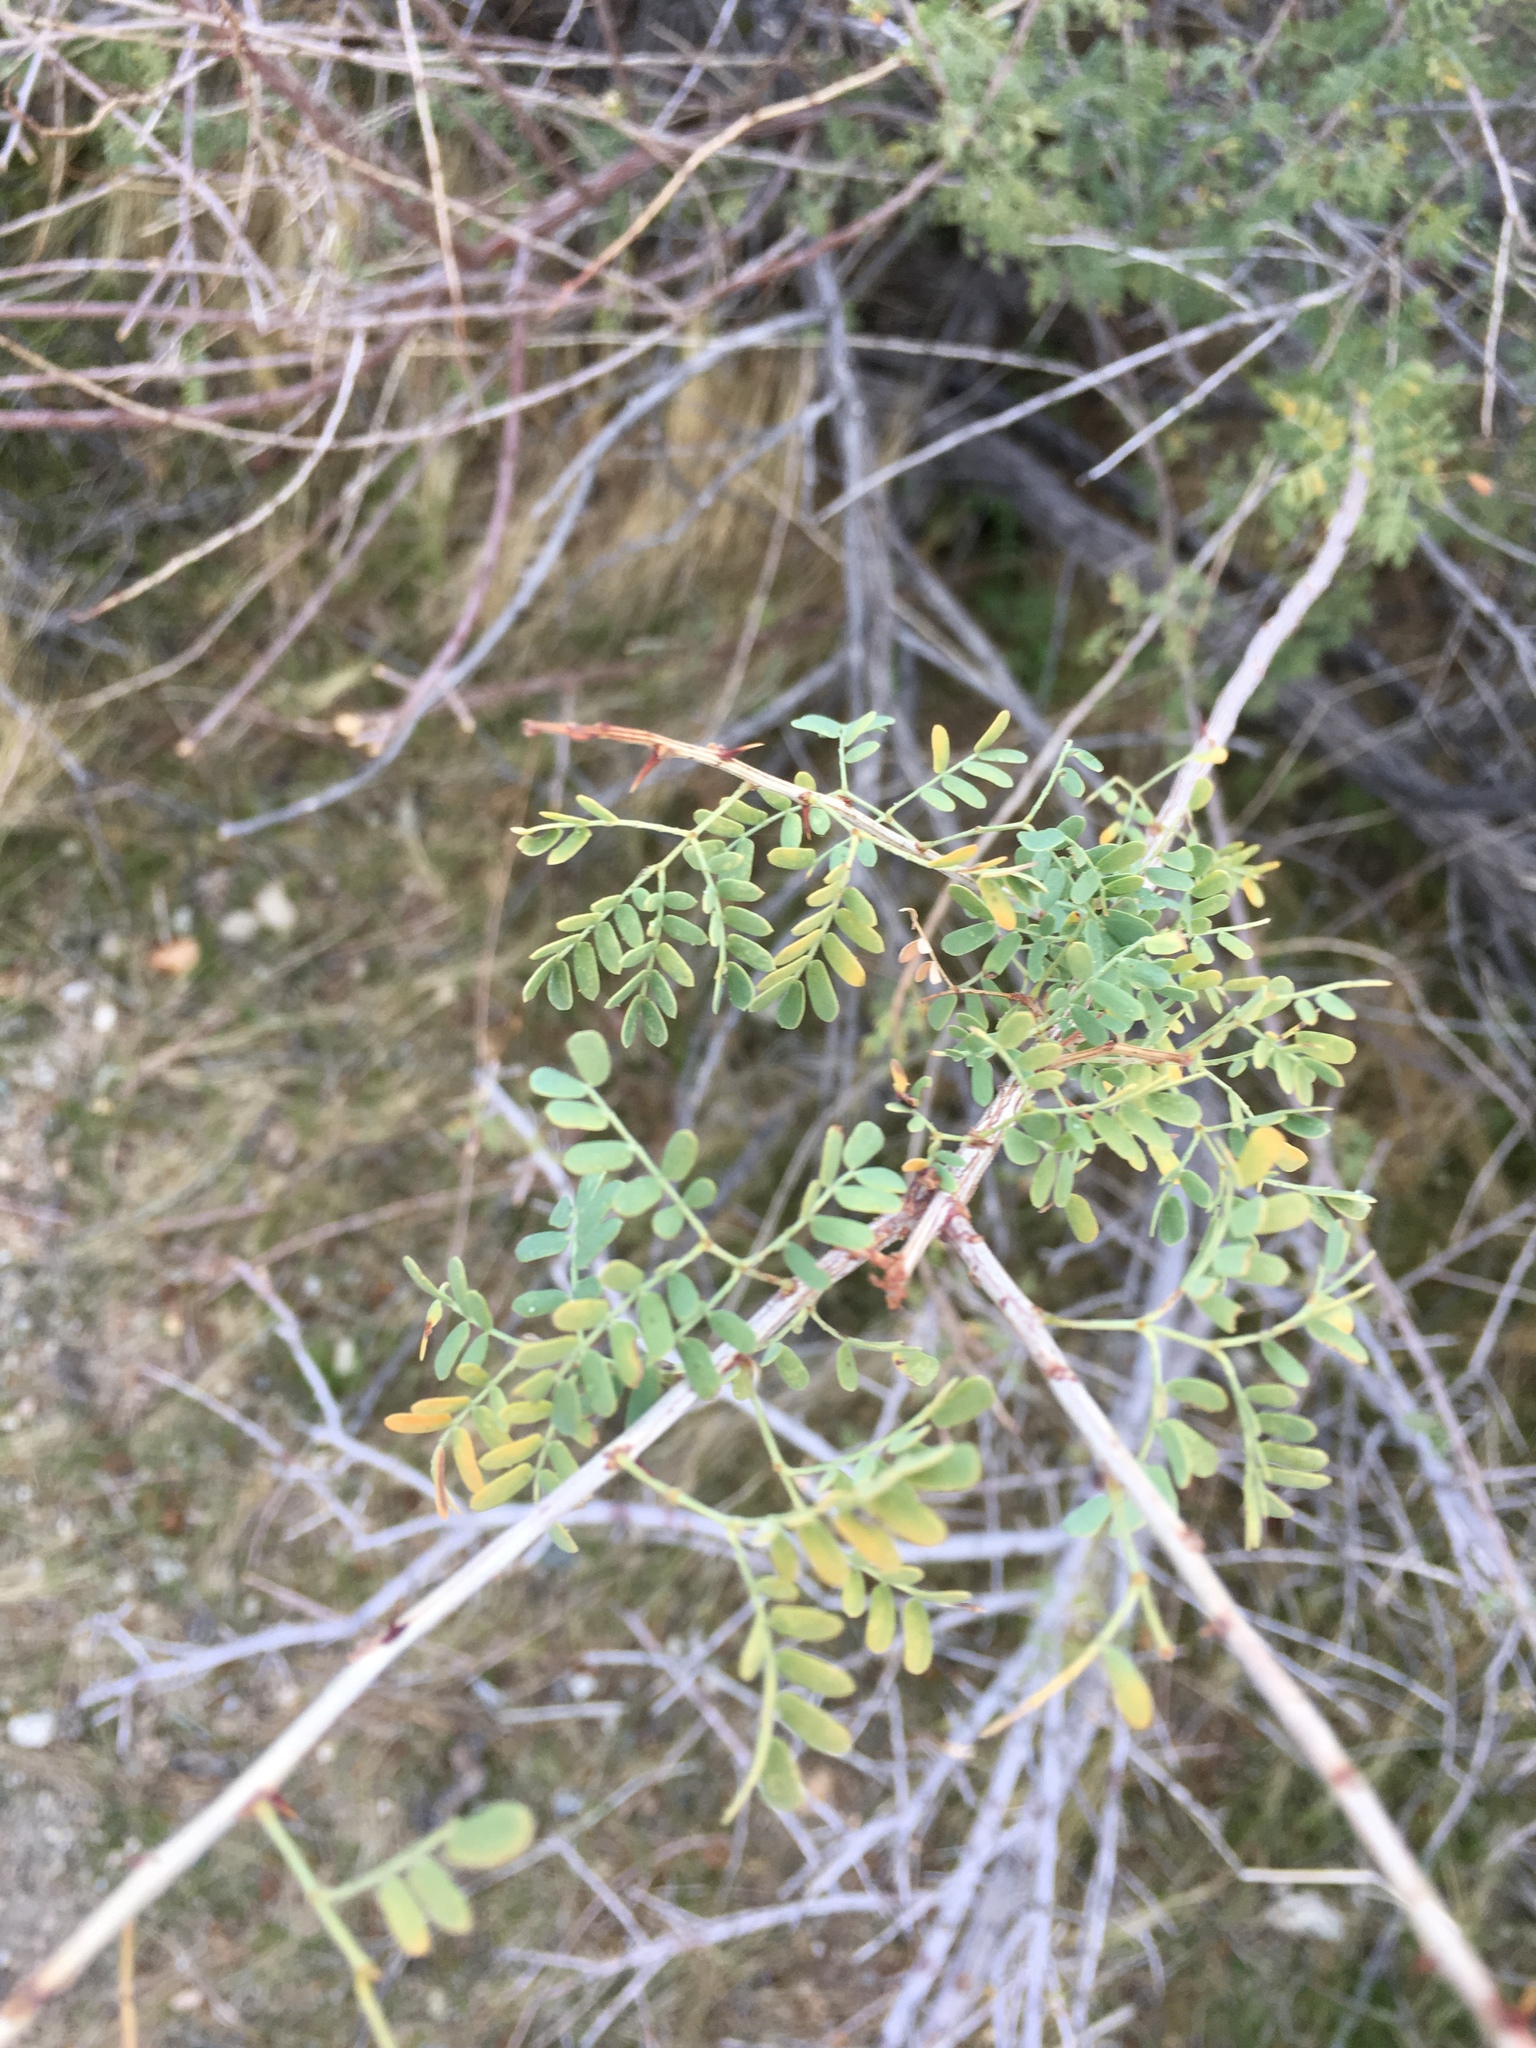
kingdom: Plantae
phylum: Tracheophyta
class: Magnoliopsida
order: Fabales
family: Fabaceae
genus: Senegalia
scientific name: Senegalia greggii
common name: Texas-mimosa
